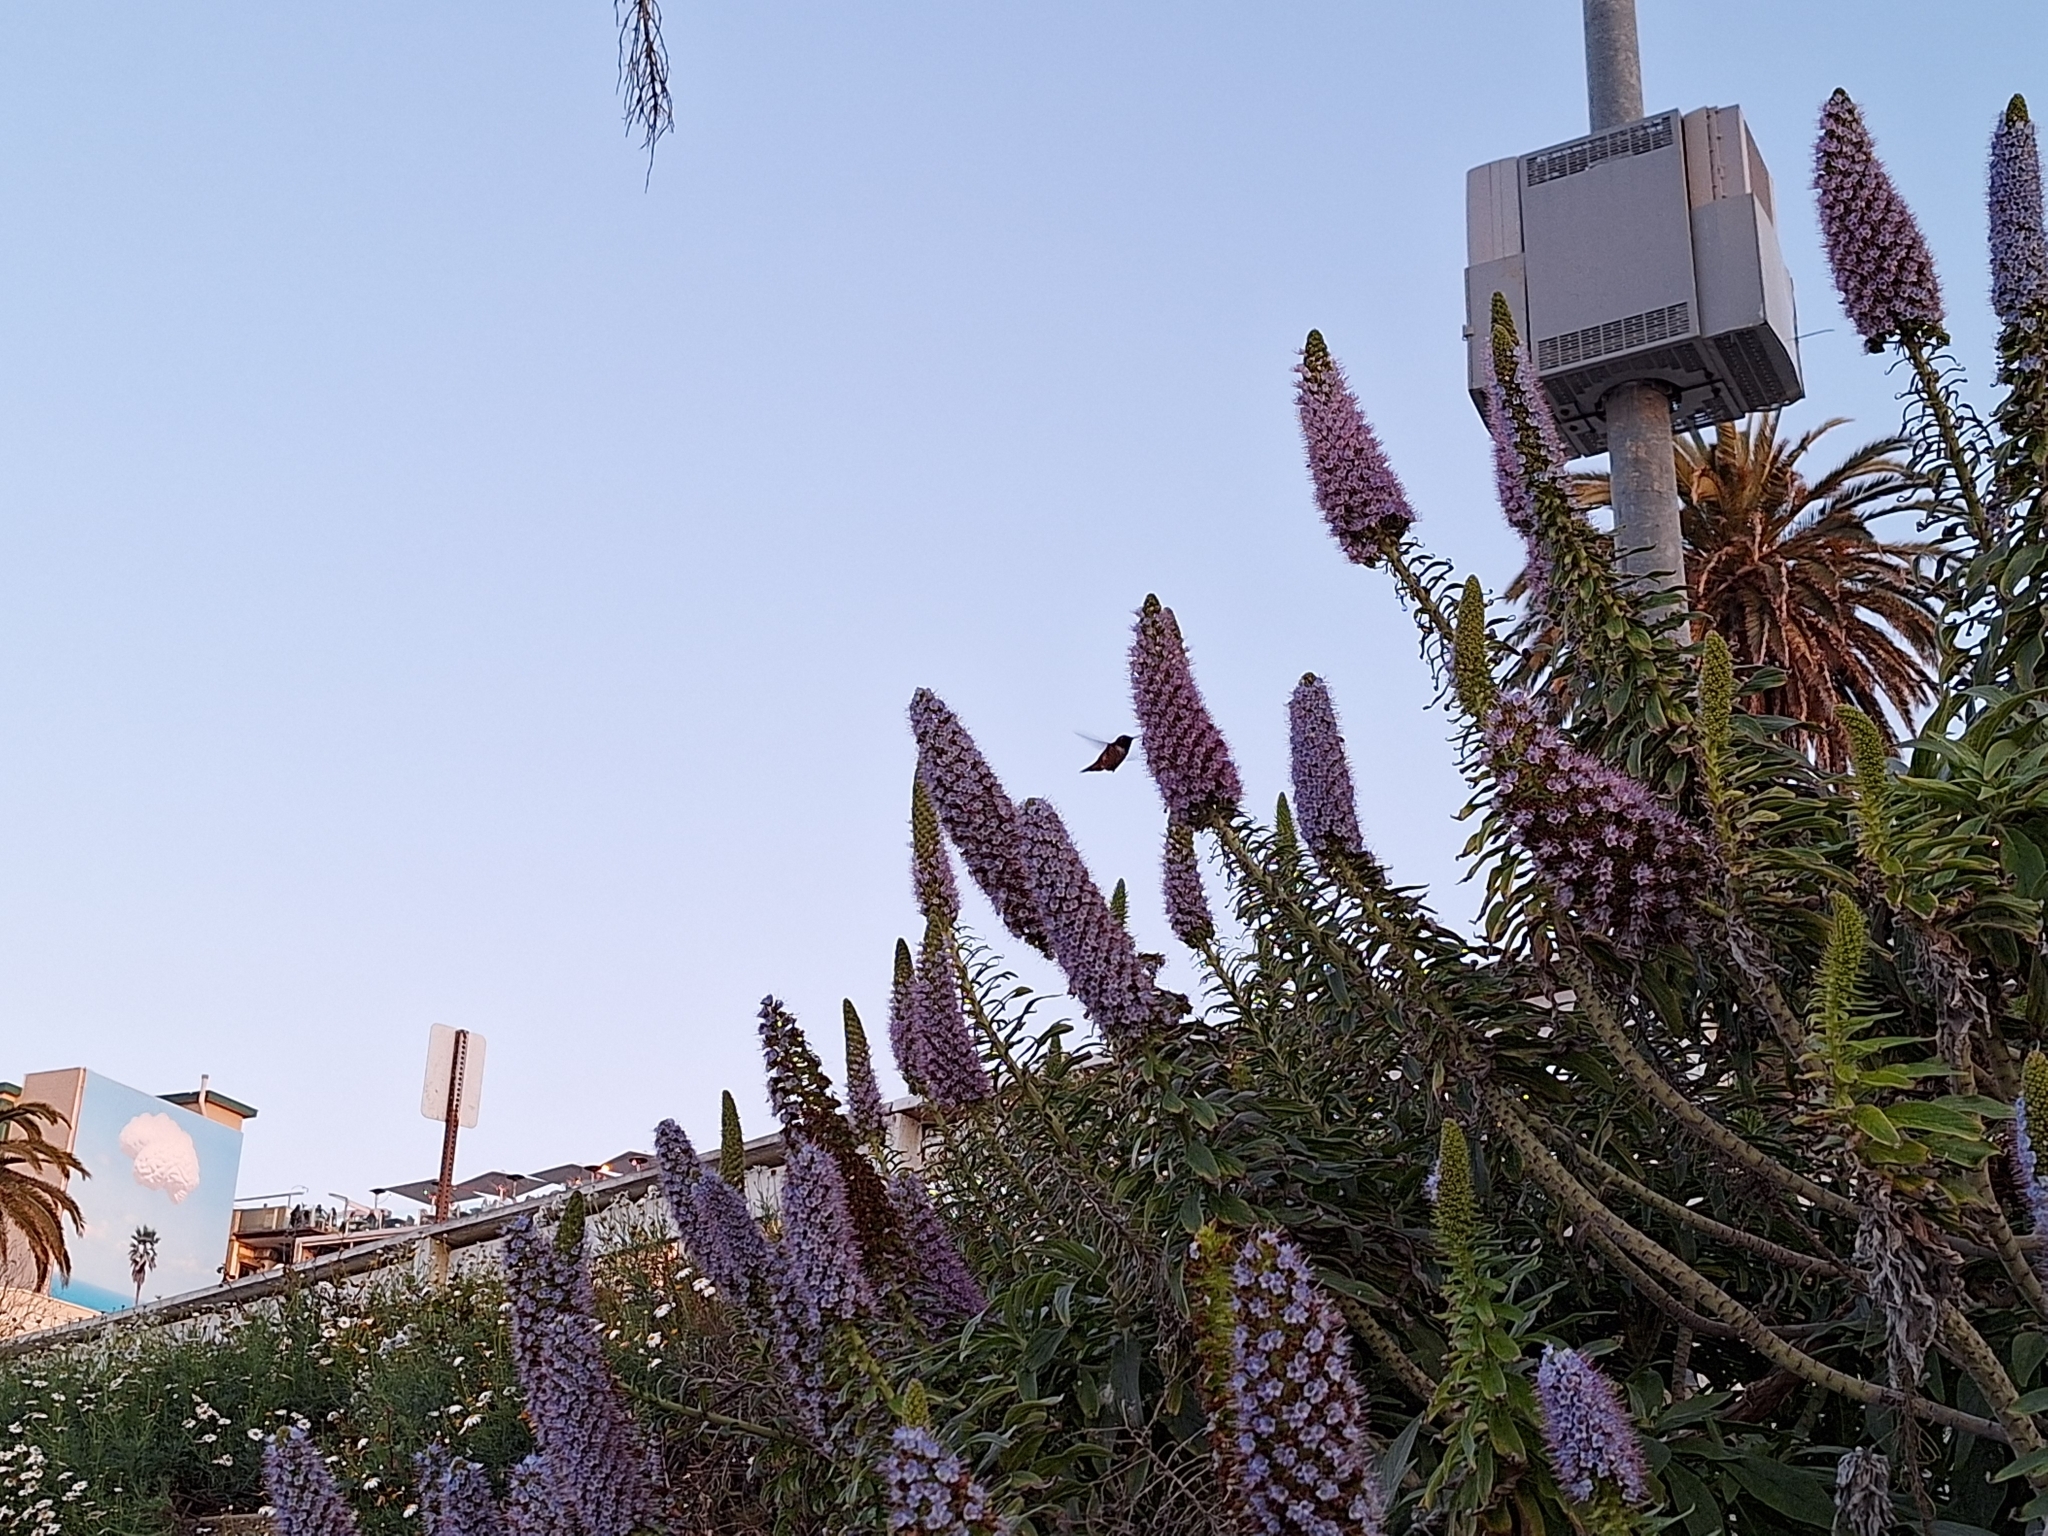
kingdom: Animalia
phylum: Chordata
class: Aves
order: Apodiformes
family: Trochilidae
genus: Selasphorus
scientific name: Selasphorus
